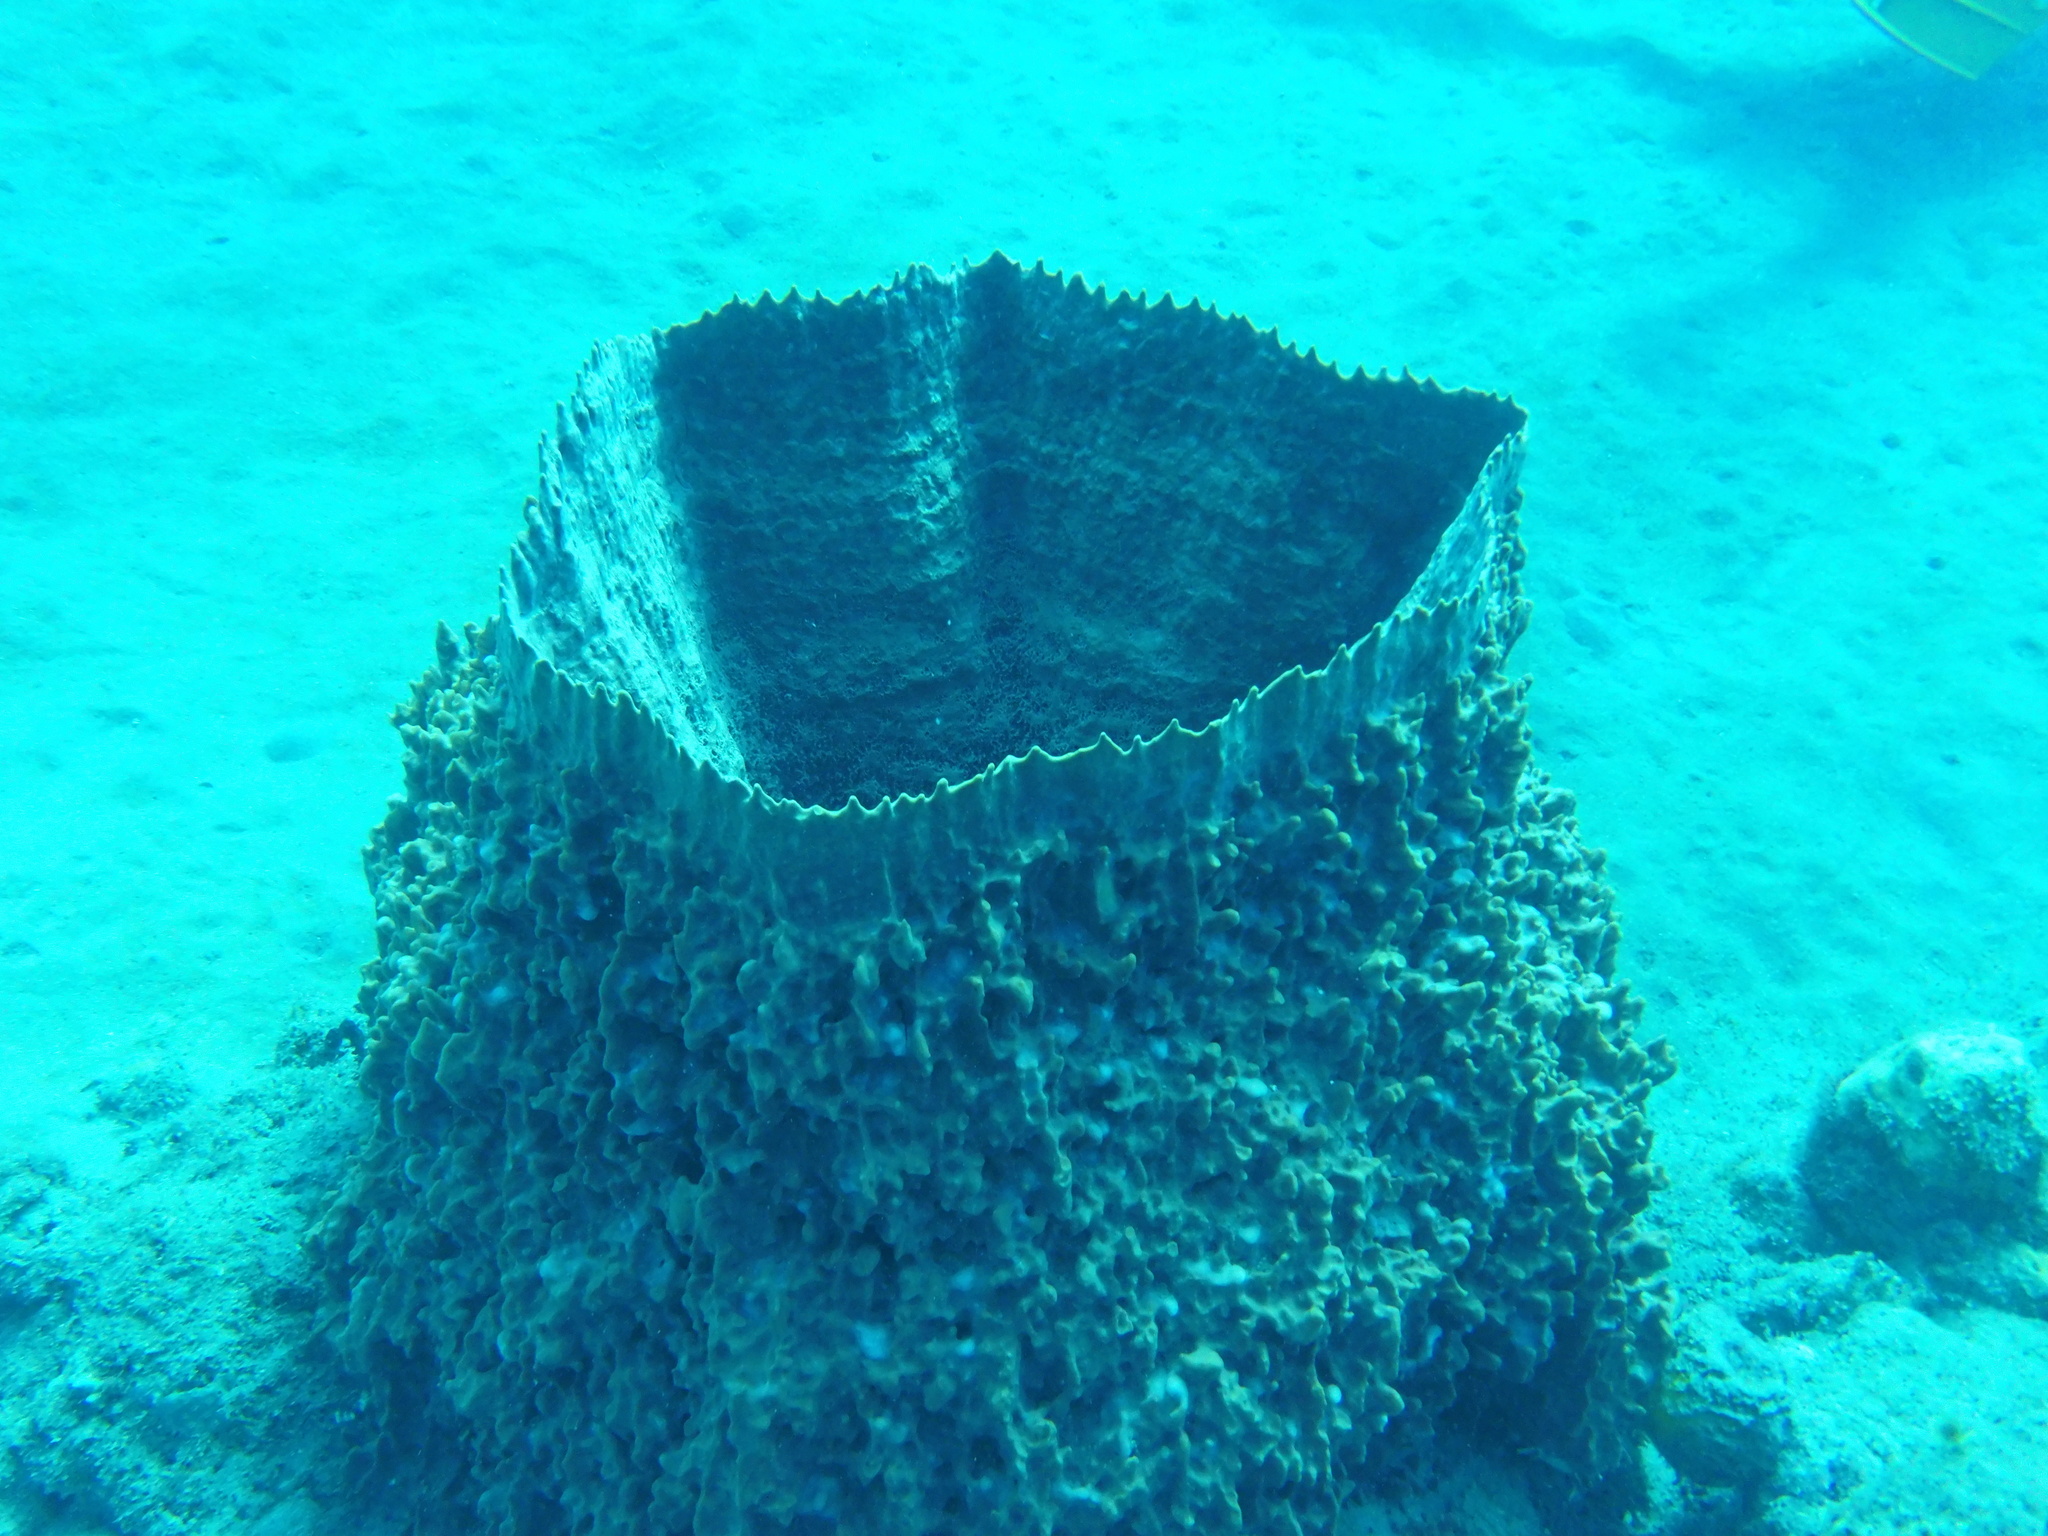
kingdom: Animalia
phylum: Porifera
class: Demospongiae
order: Haplosclerida
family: Petrosiidae
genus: Xestospongia
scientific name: Xestospongia muta
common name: Giant barrel sponge
